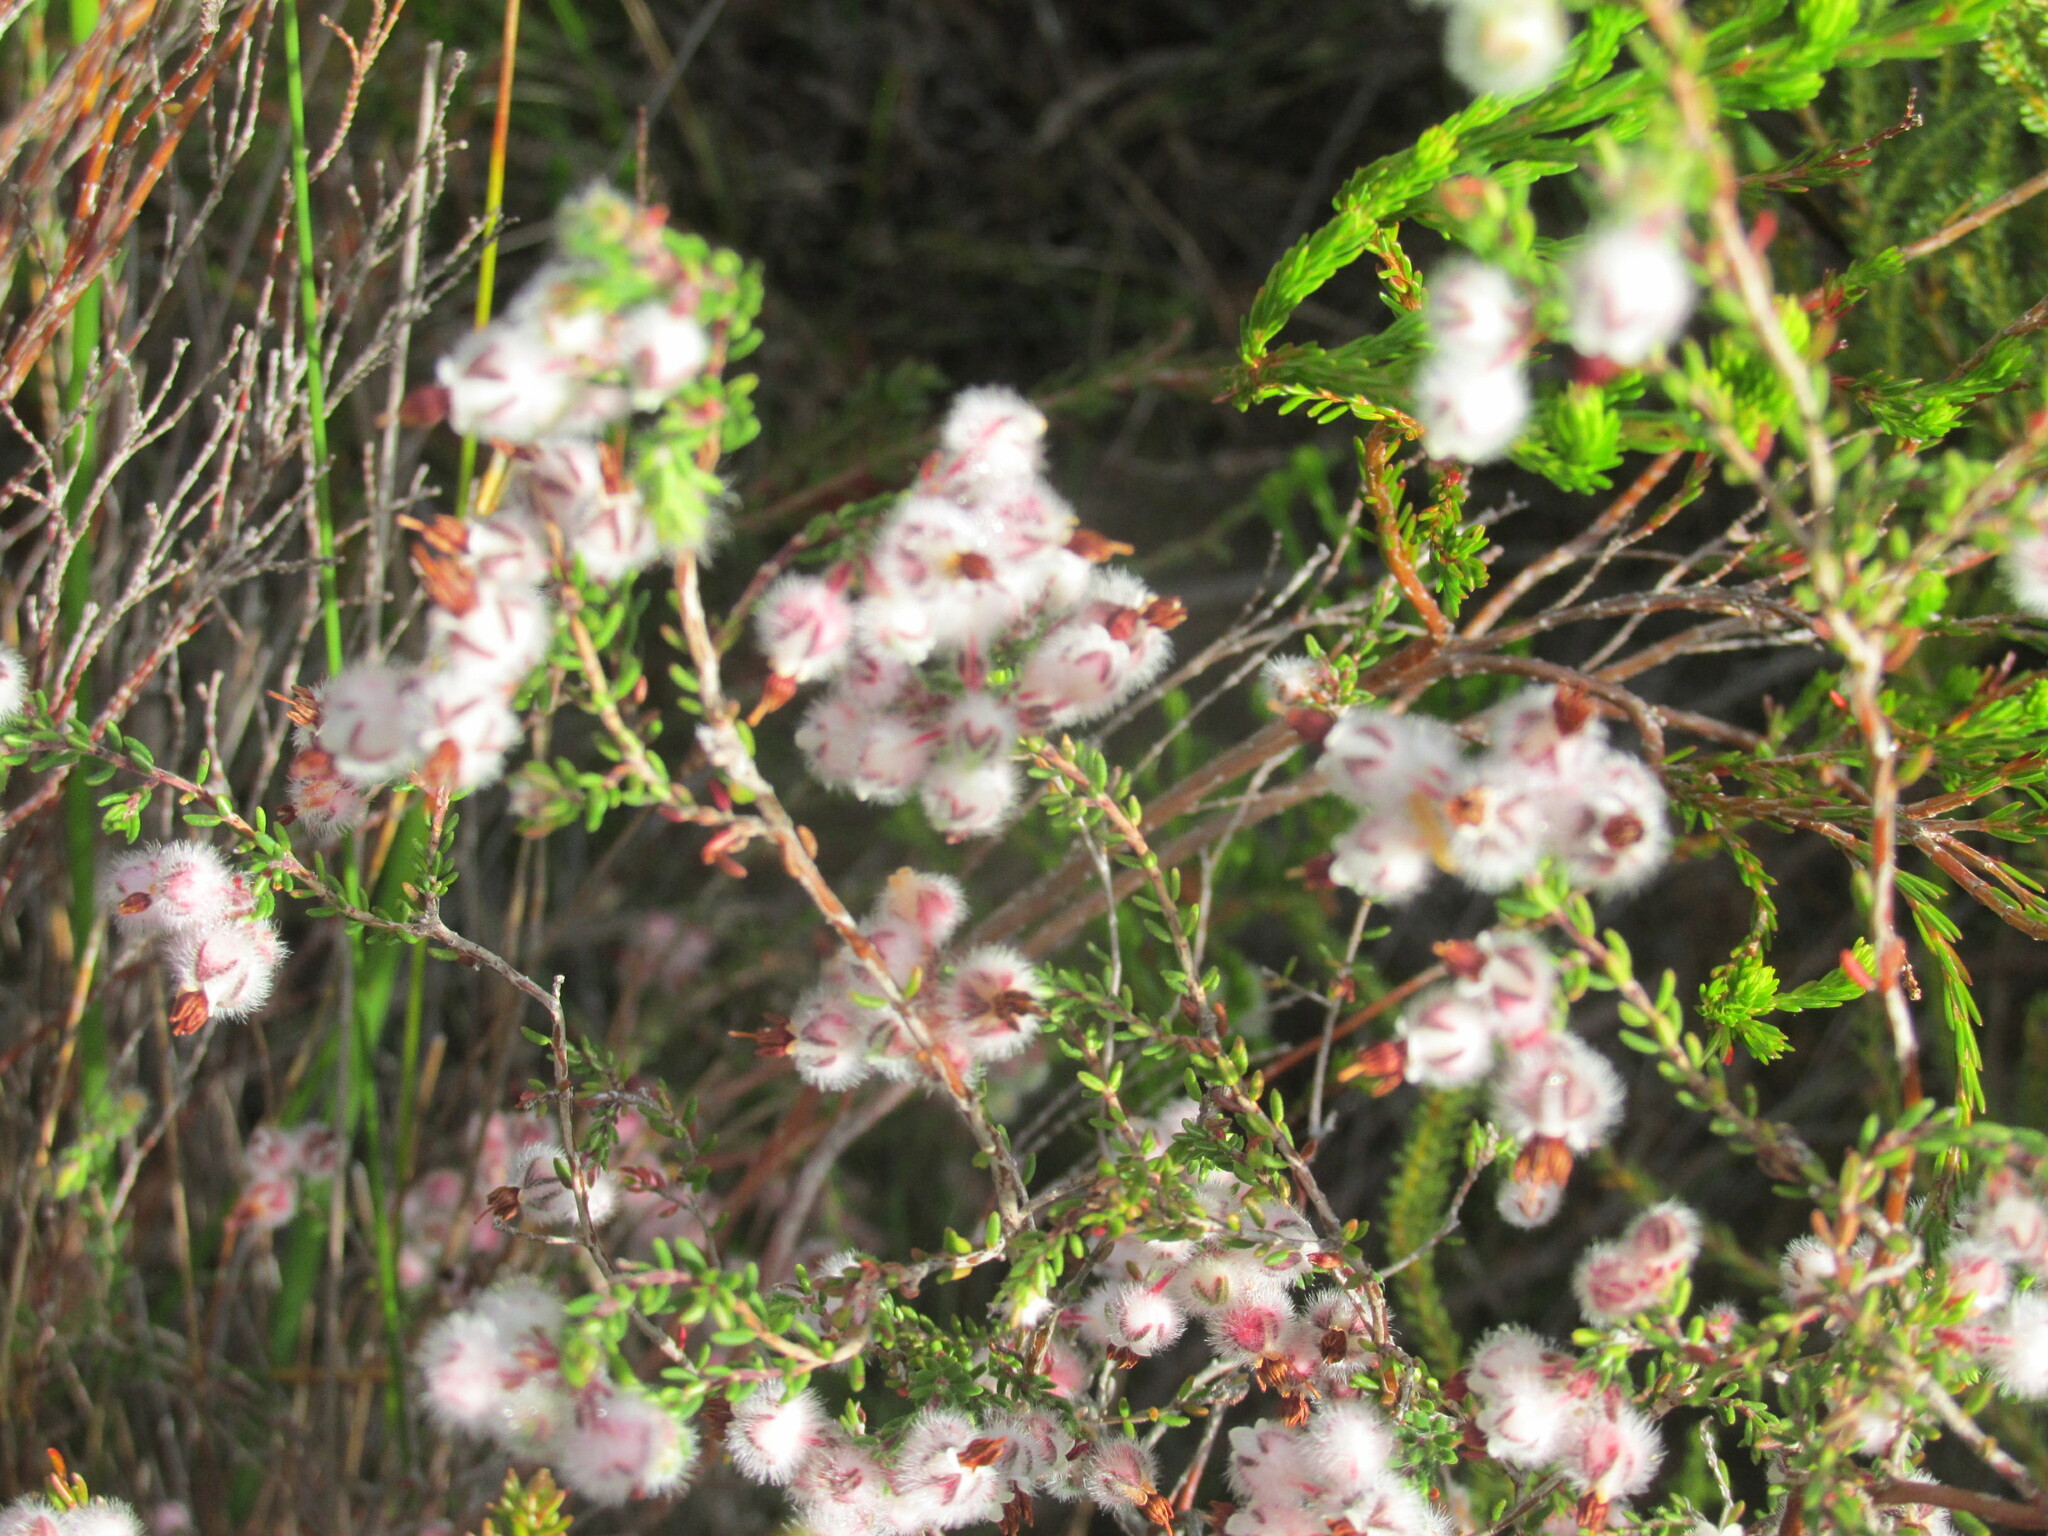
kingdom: Plantae
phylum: Tracheophyta
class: Magnoliopsida
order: Ericales
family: Ericaceae
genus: Erica
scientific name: Erica bruniades
